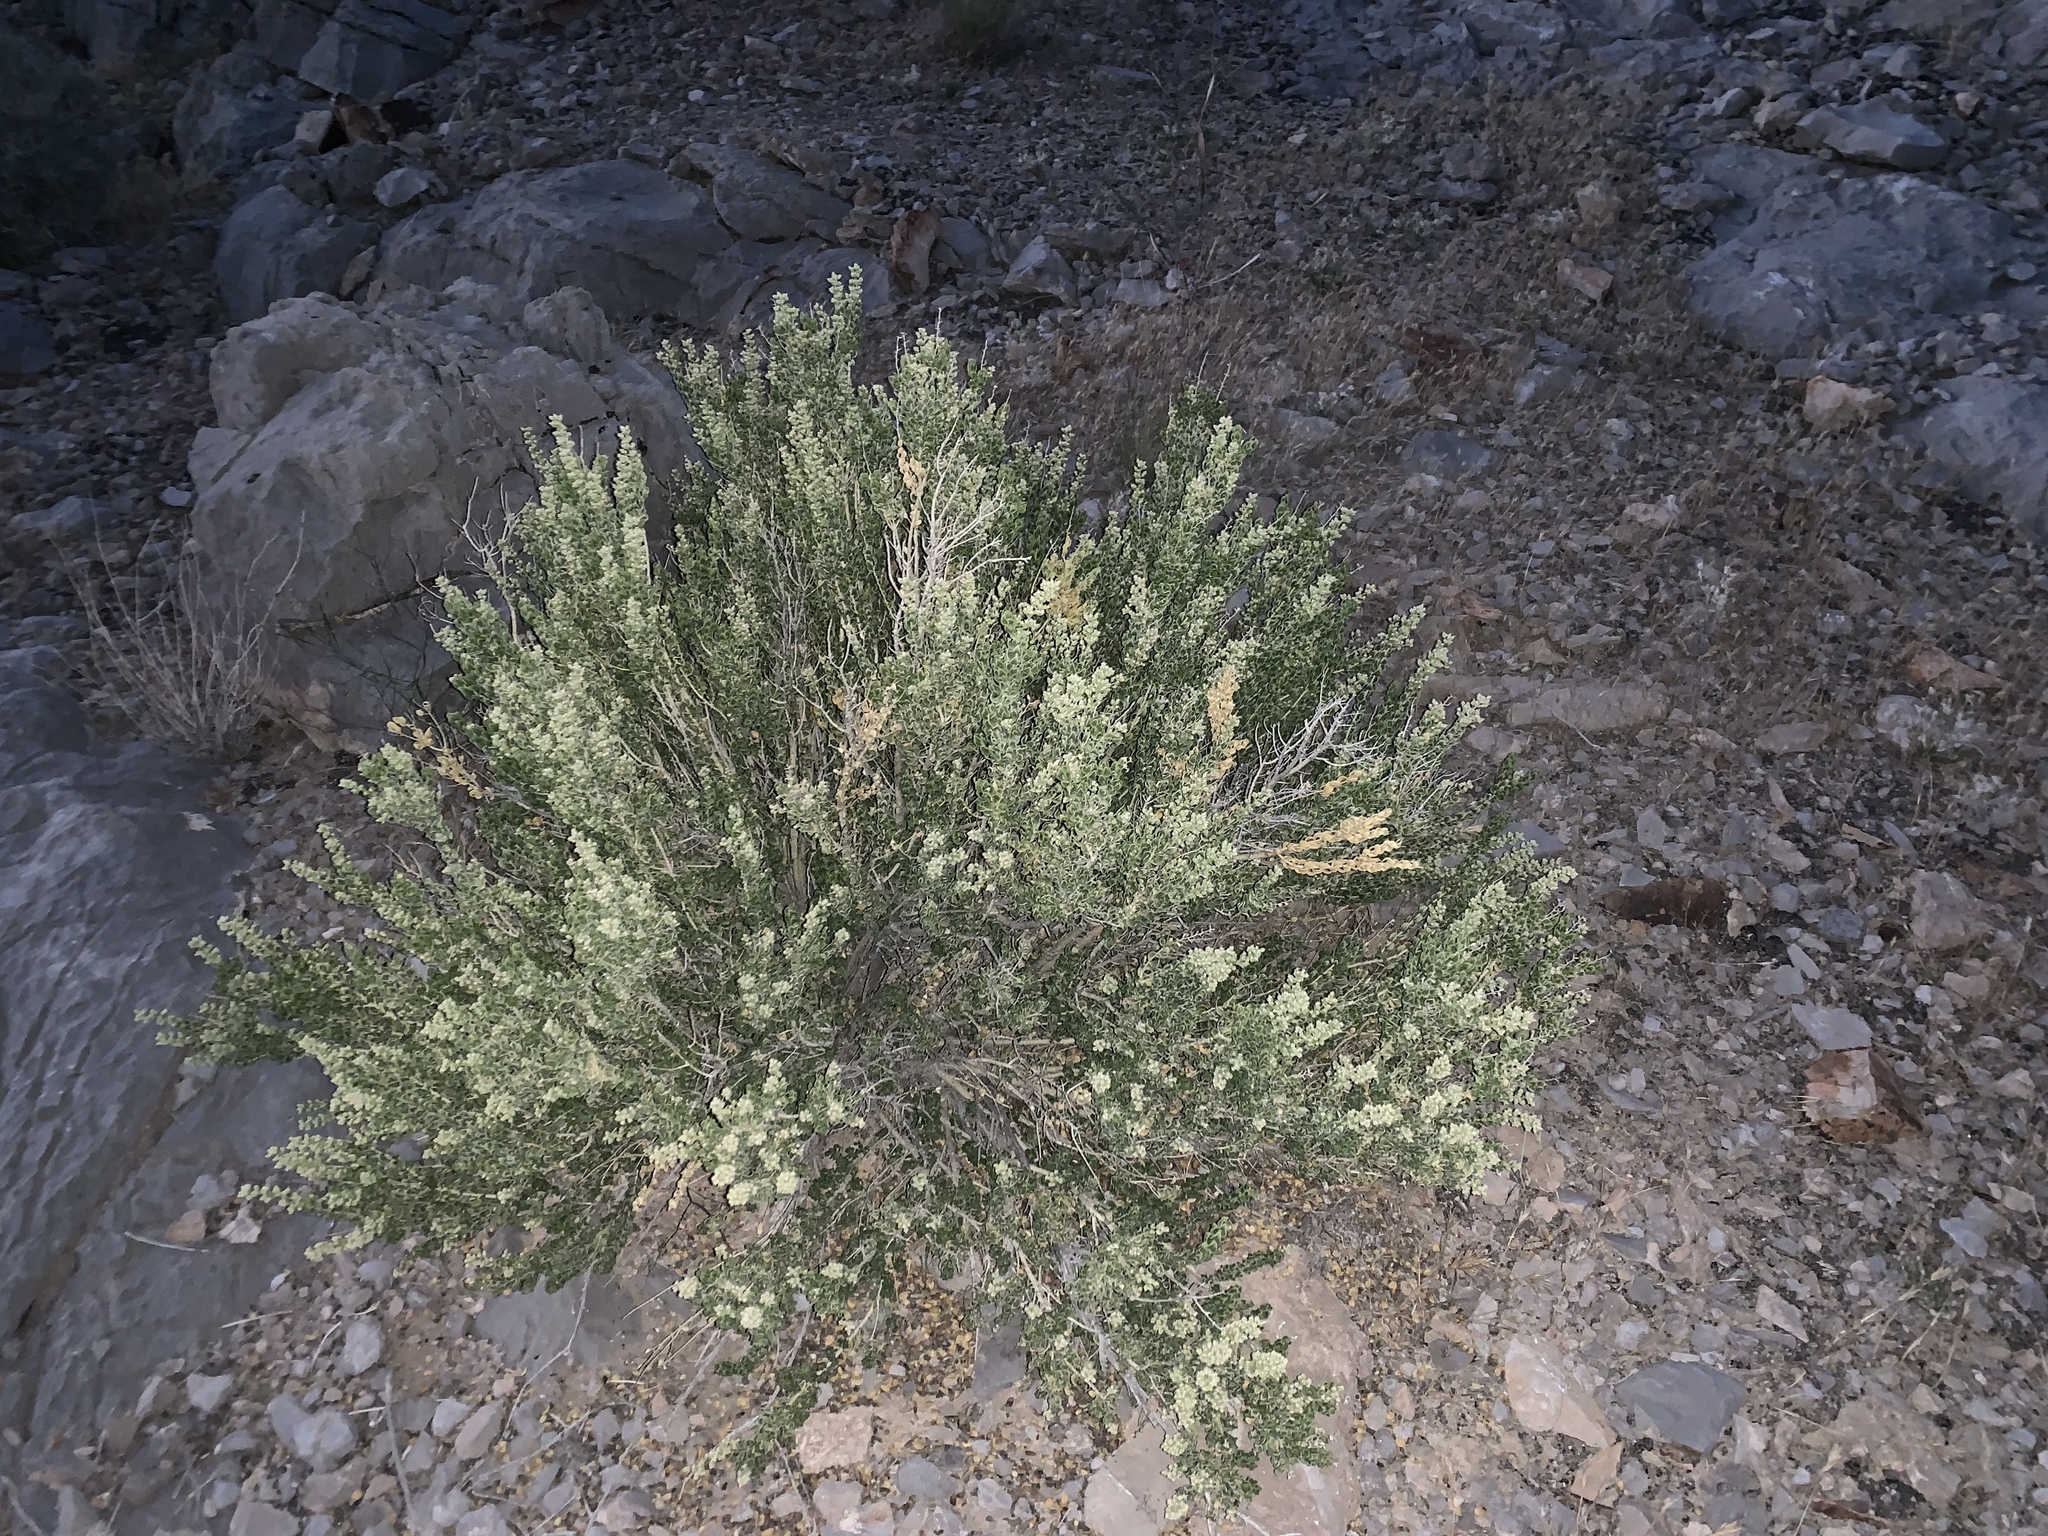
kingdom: Plantae
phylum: Tracheophyta
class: Magnoliopsida
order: Celastrales
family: Celastraceae
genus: Mortonia
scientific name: Mortonia utahensis
